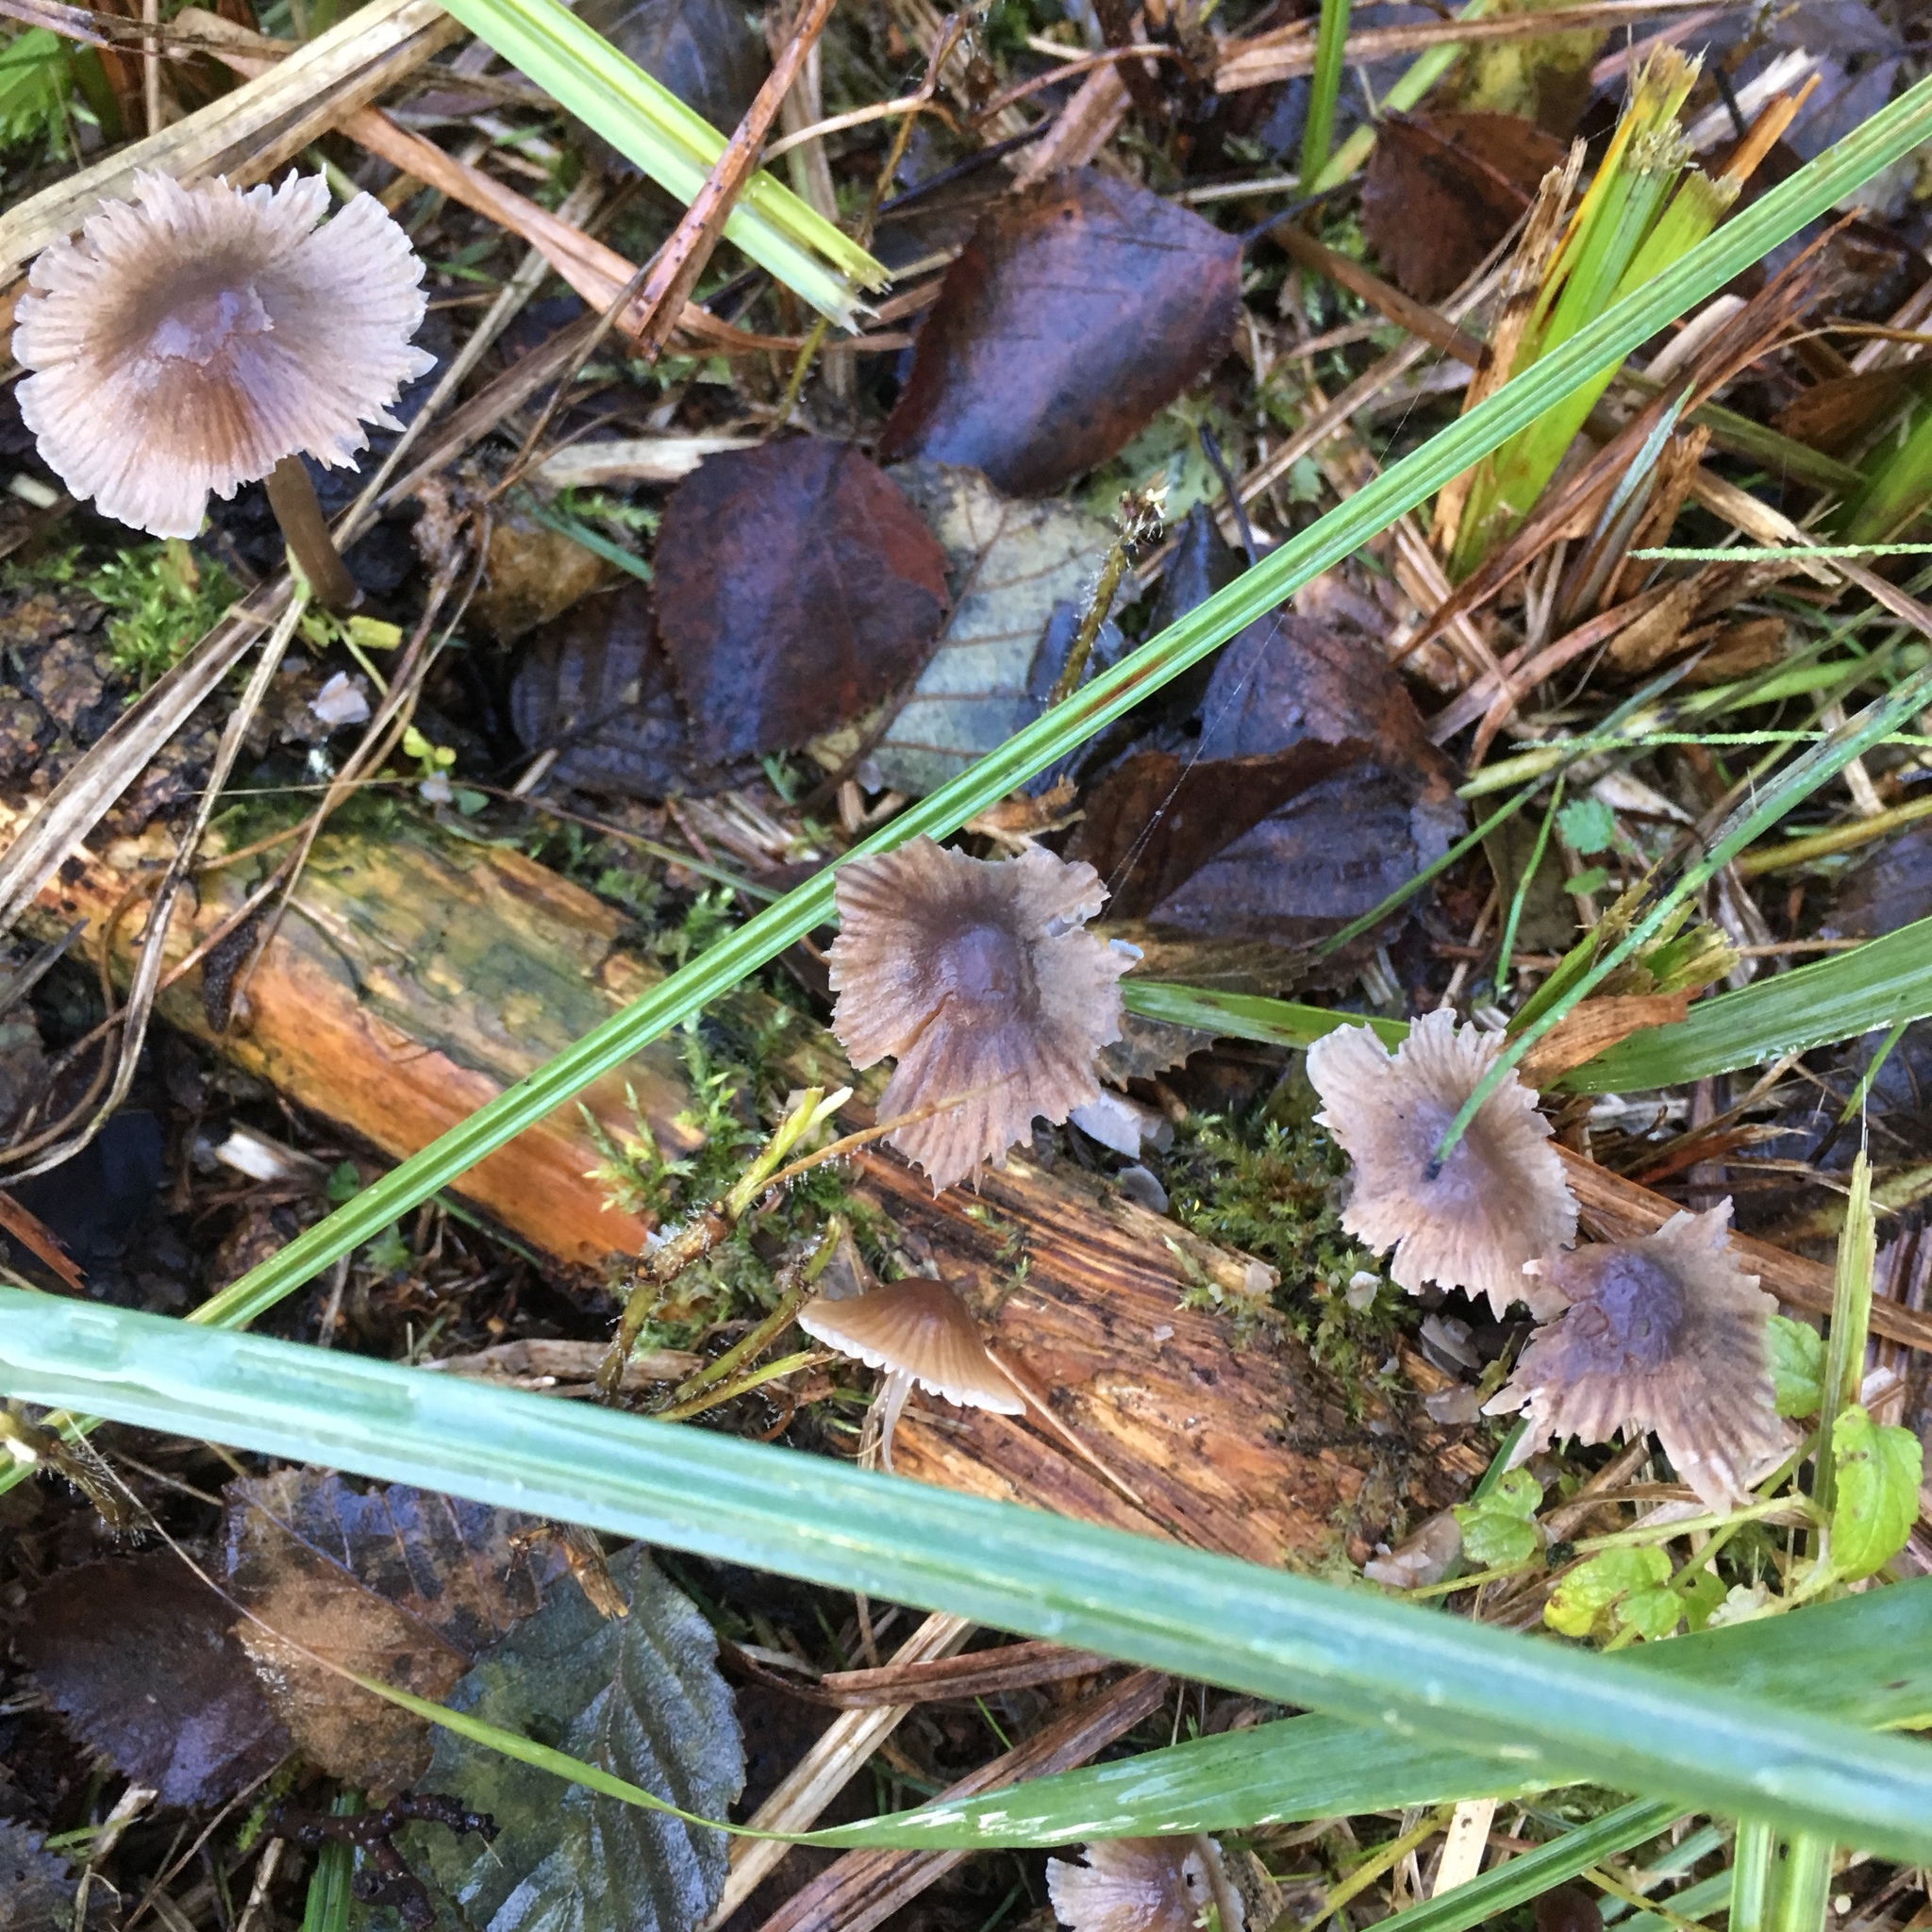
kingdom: Fungi
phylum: Basidiomycota
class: Agaricomycetes
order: Agaricales
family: Mycenaceae
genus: Mycena
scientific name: Mycena leptocephala
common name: Nitrous bonnet
